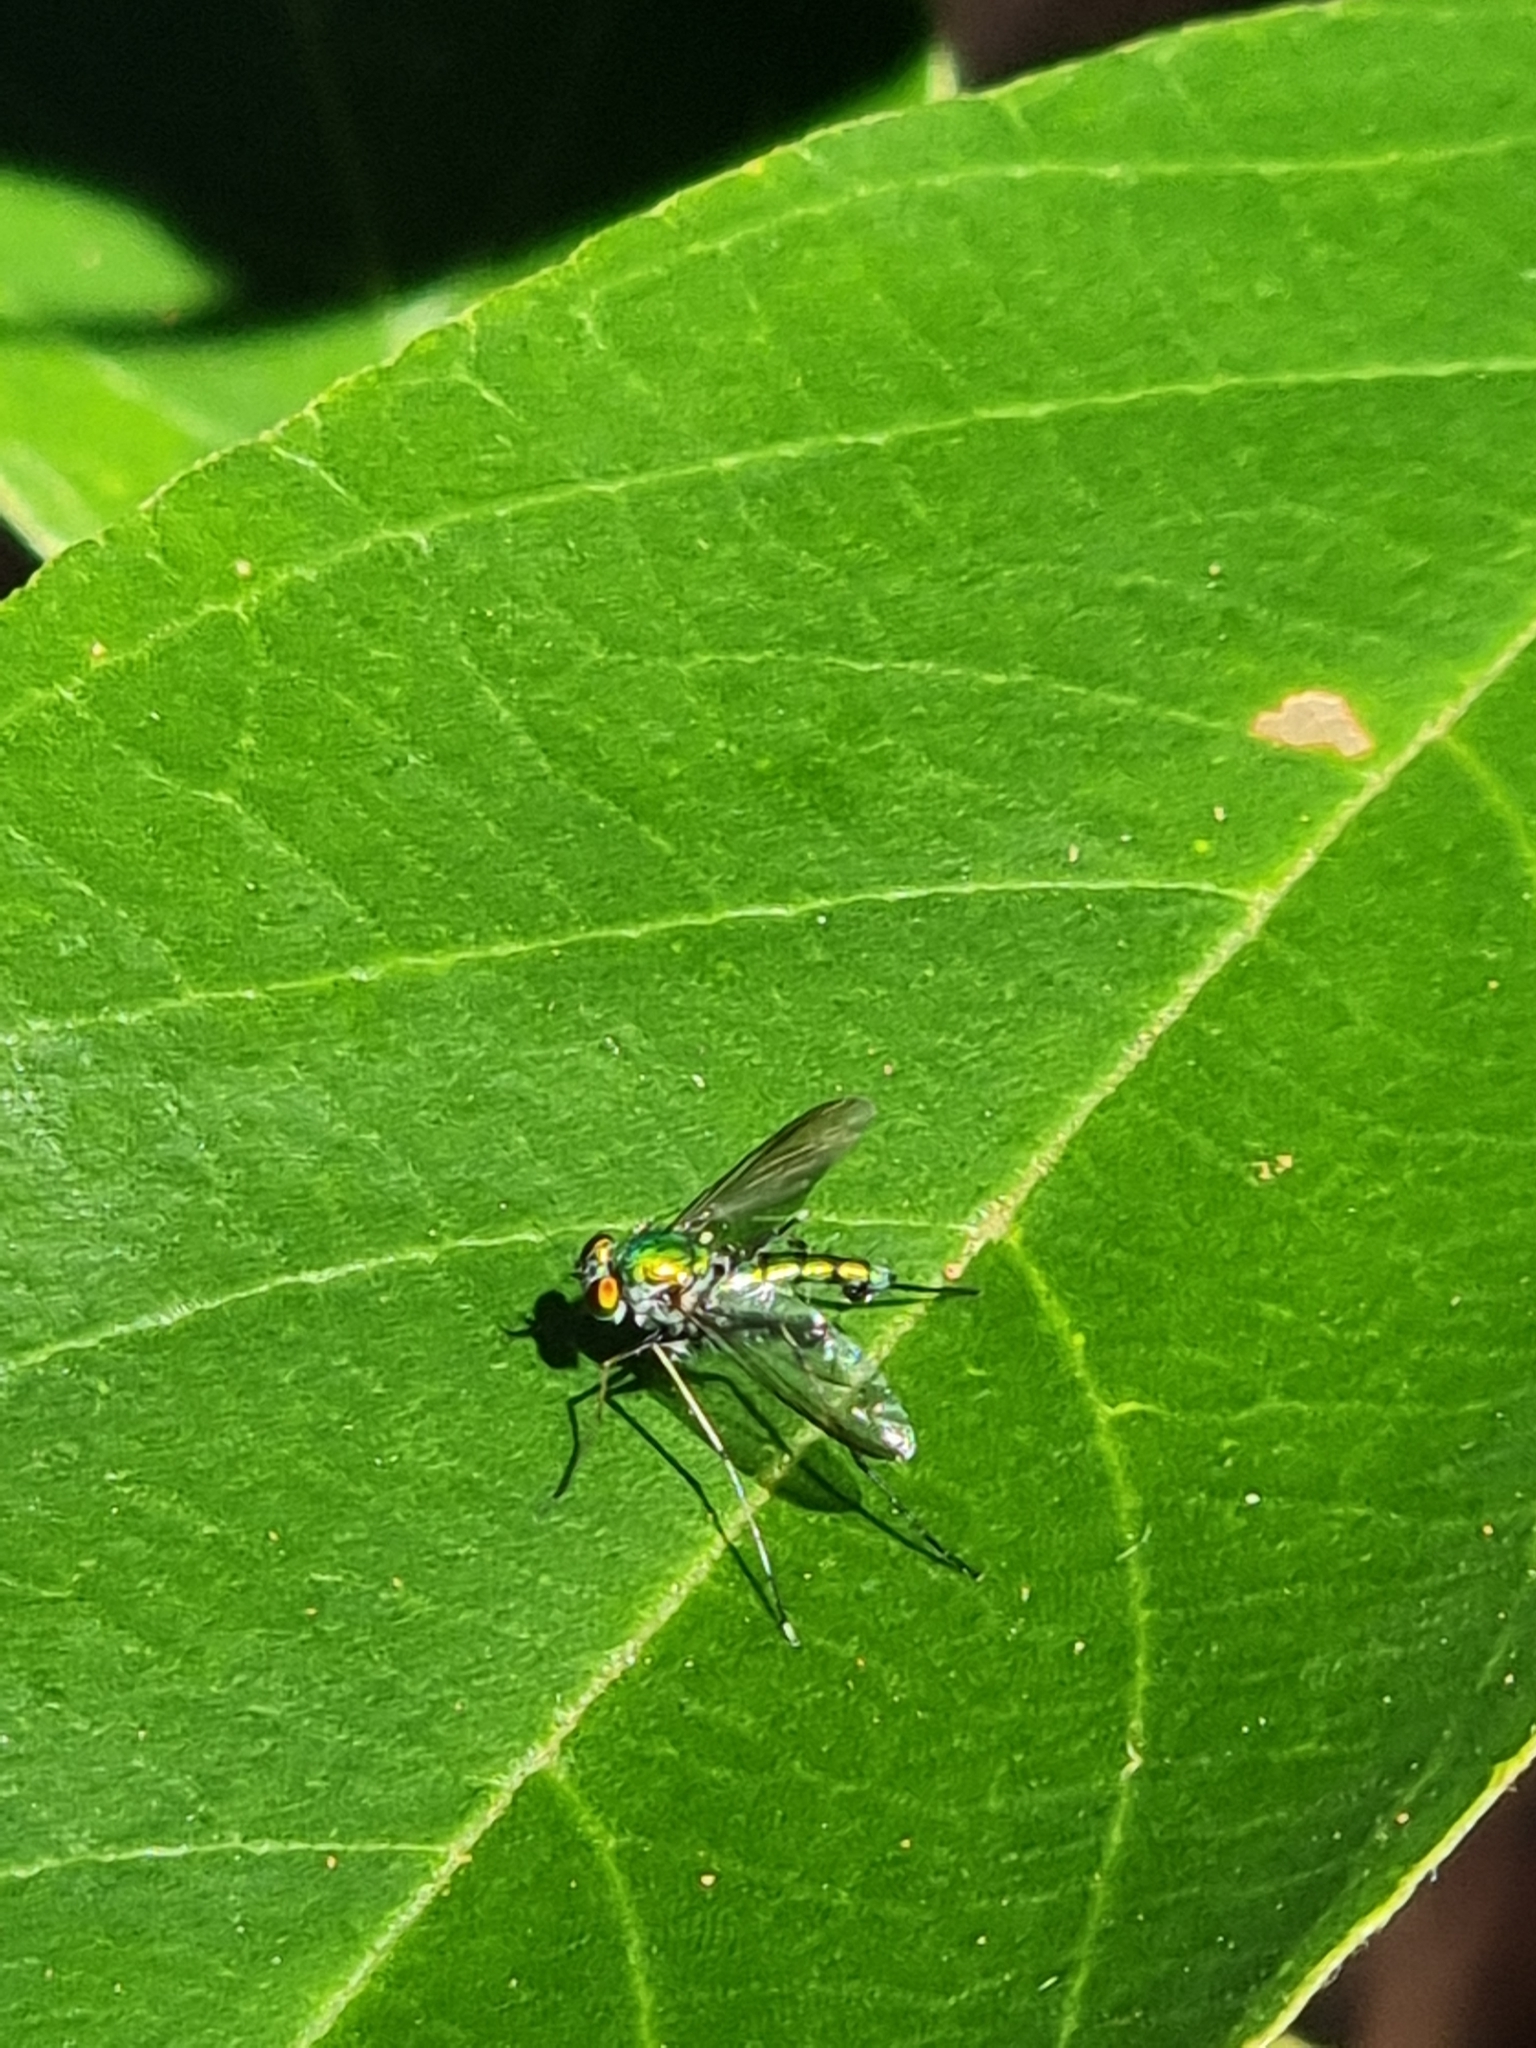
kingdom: Animalia
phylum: Arthropoda
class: Insecta
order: Diptera
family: Dolichopodidae
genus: Chrysosoma
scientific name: Chrysosoma leucopogon
